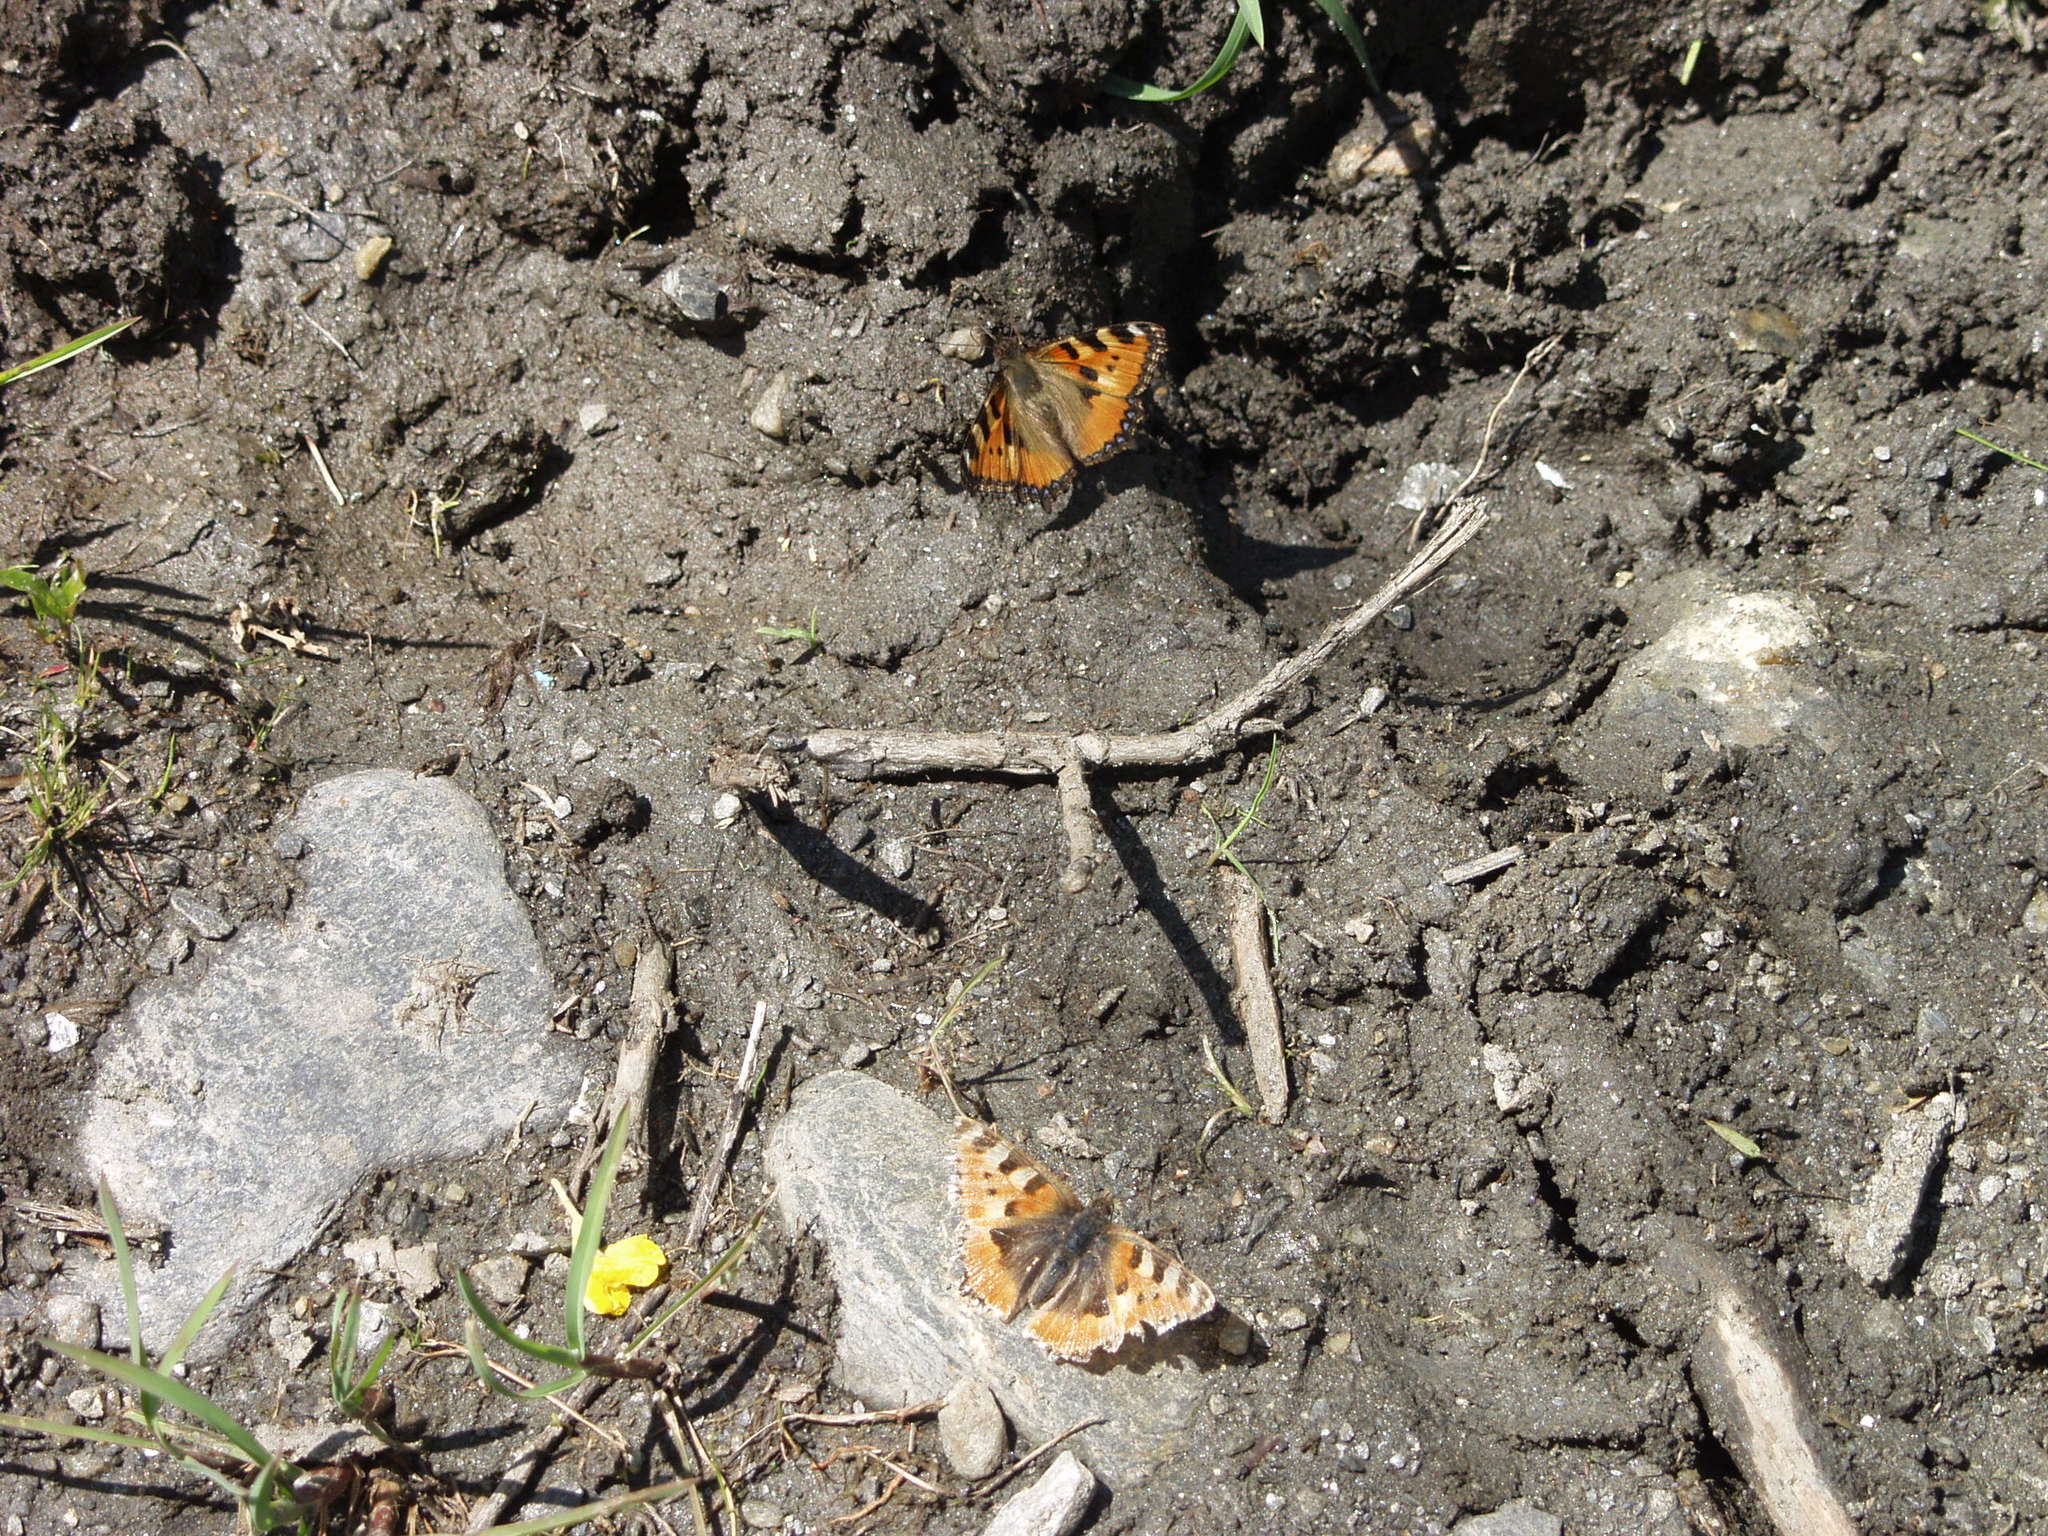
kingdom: Animalia
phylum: Arthropoda
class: Insecta
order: Lepidoptera
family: Nymphalidae
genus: Aglais
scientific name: Aglais urticae
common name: Small tortoiseshell
